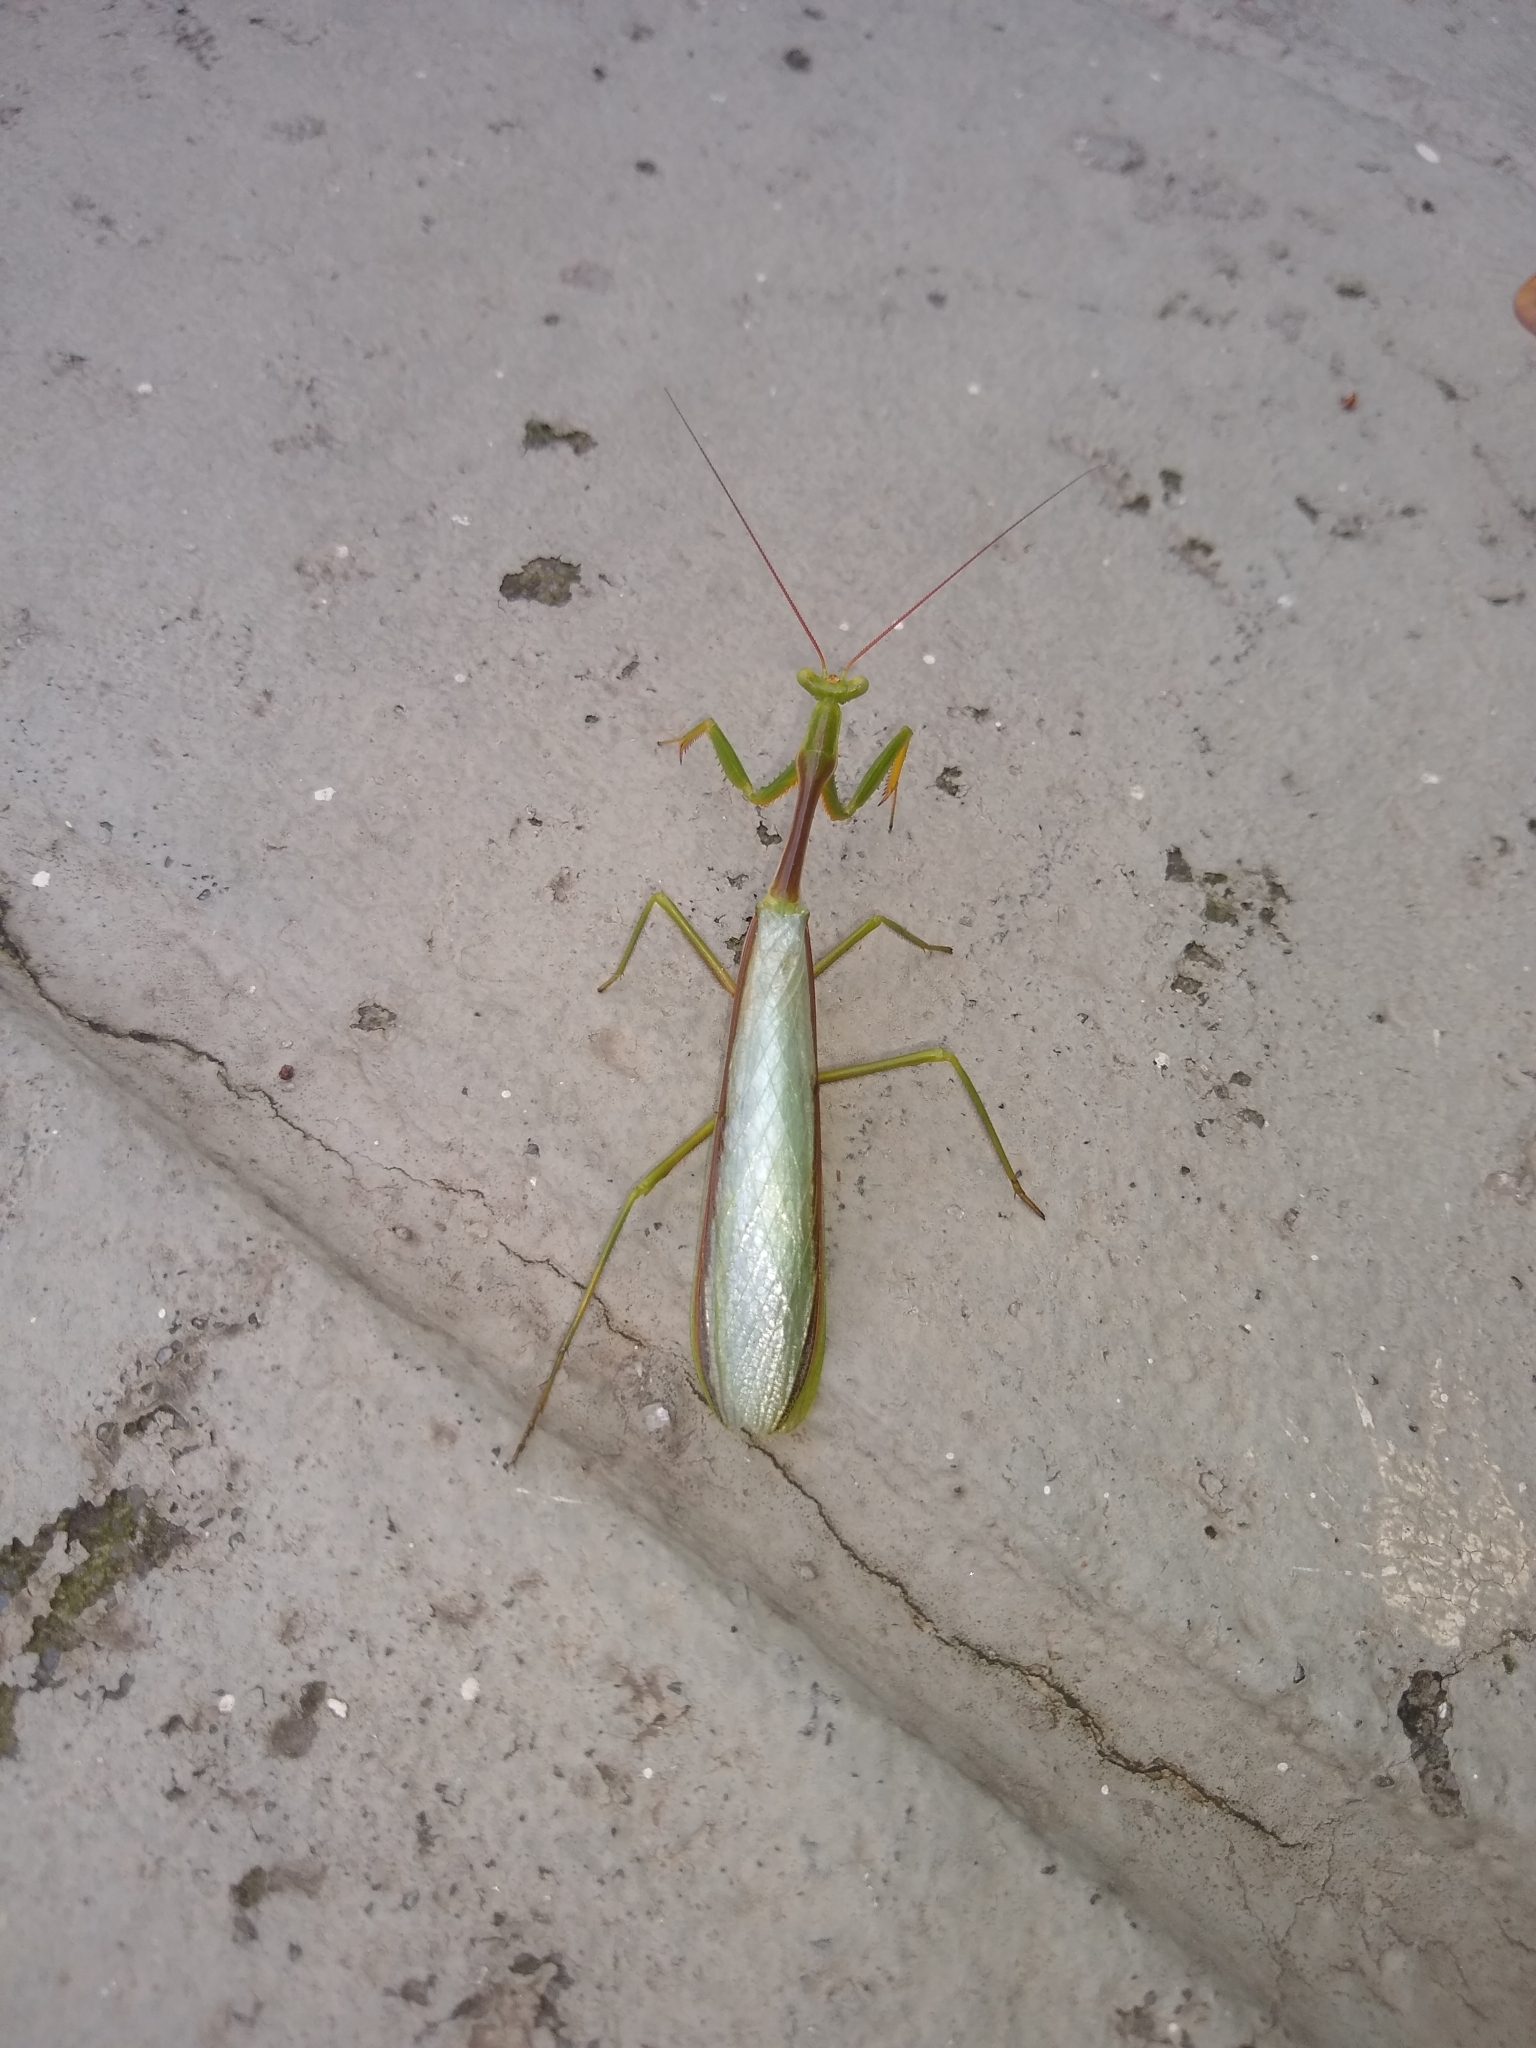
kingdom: Animalia
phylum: Arthropoda
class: Insecta
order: Mantodea
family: Photinaidae
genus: Cardioptera
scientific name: Cardioptera brachyptera
